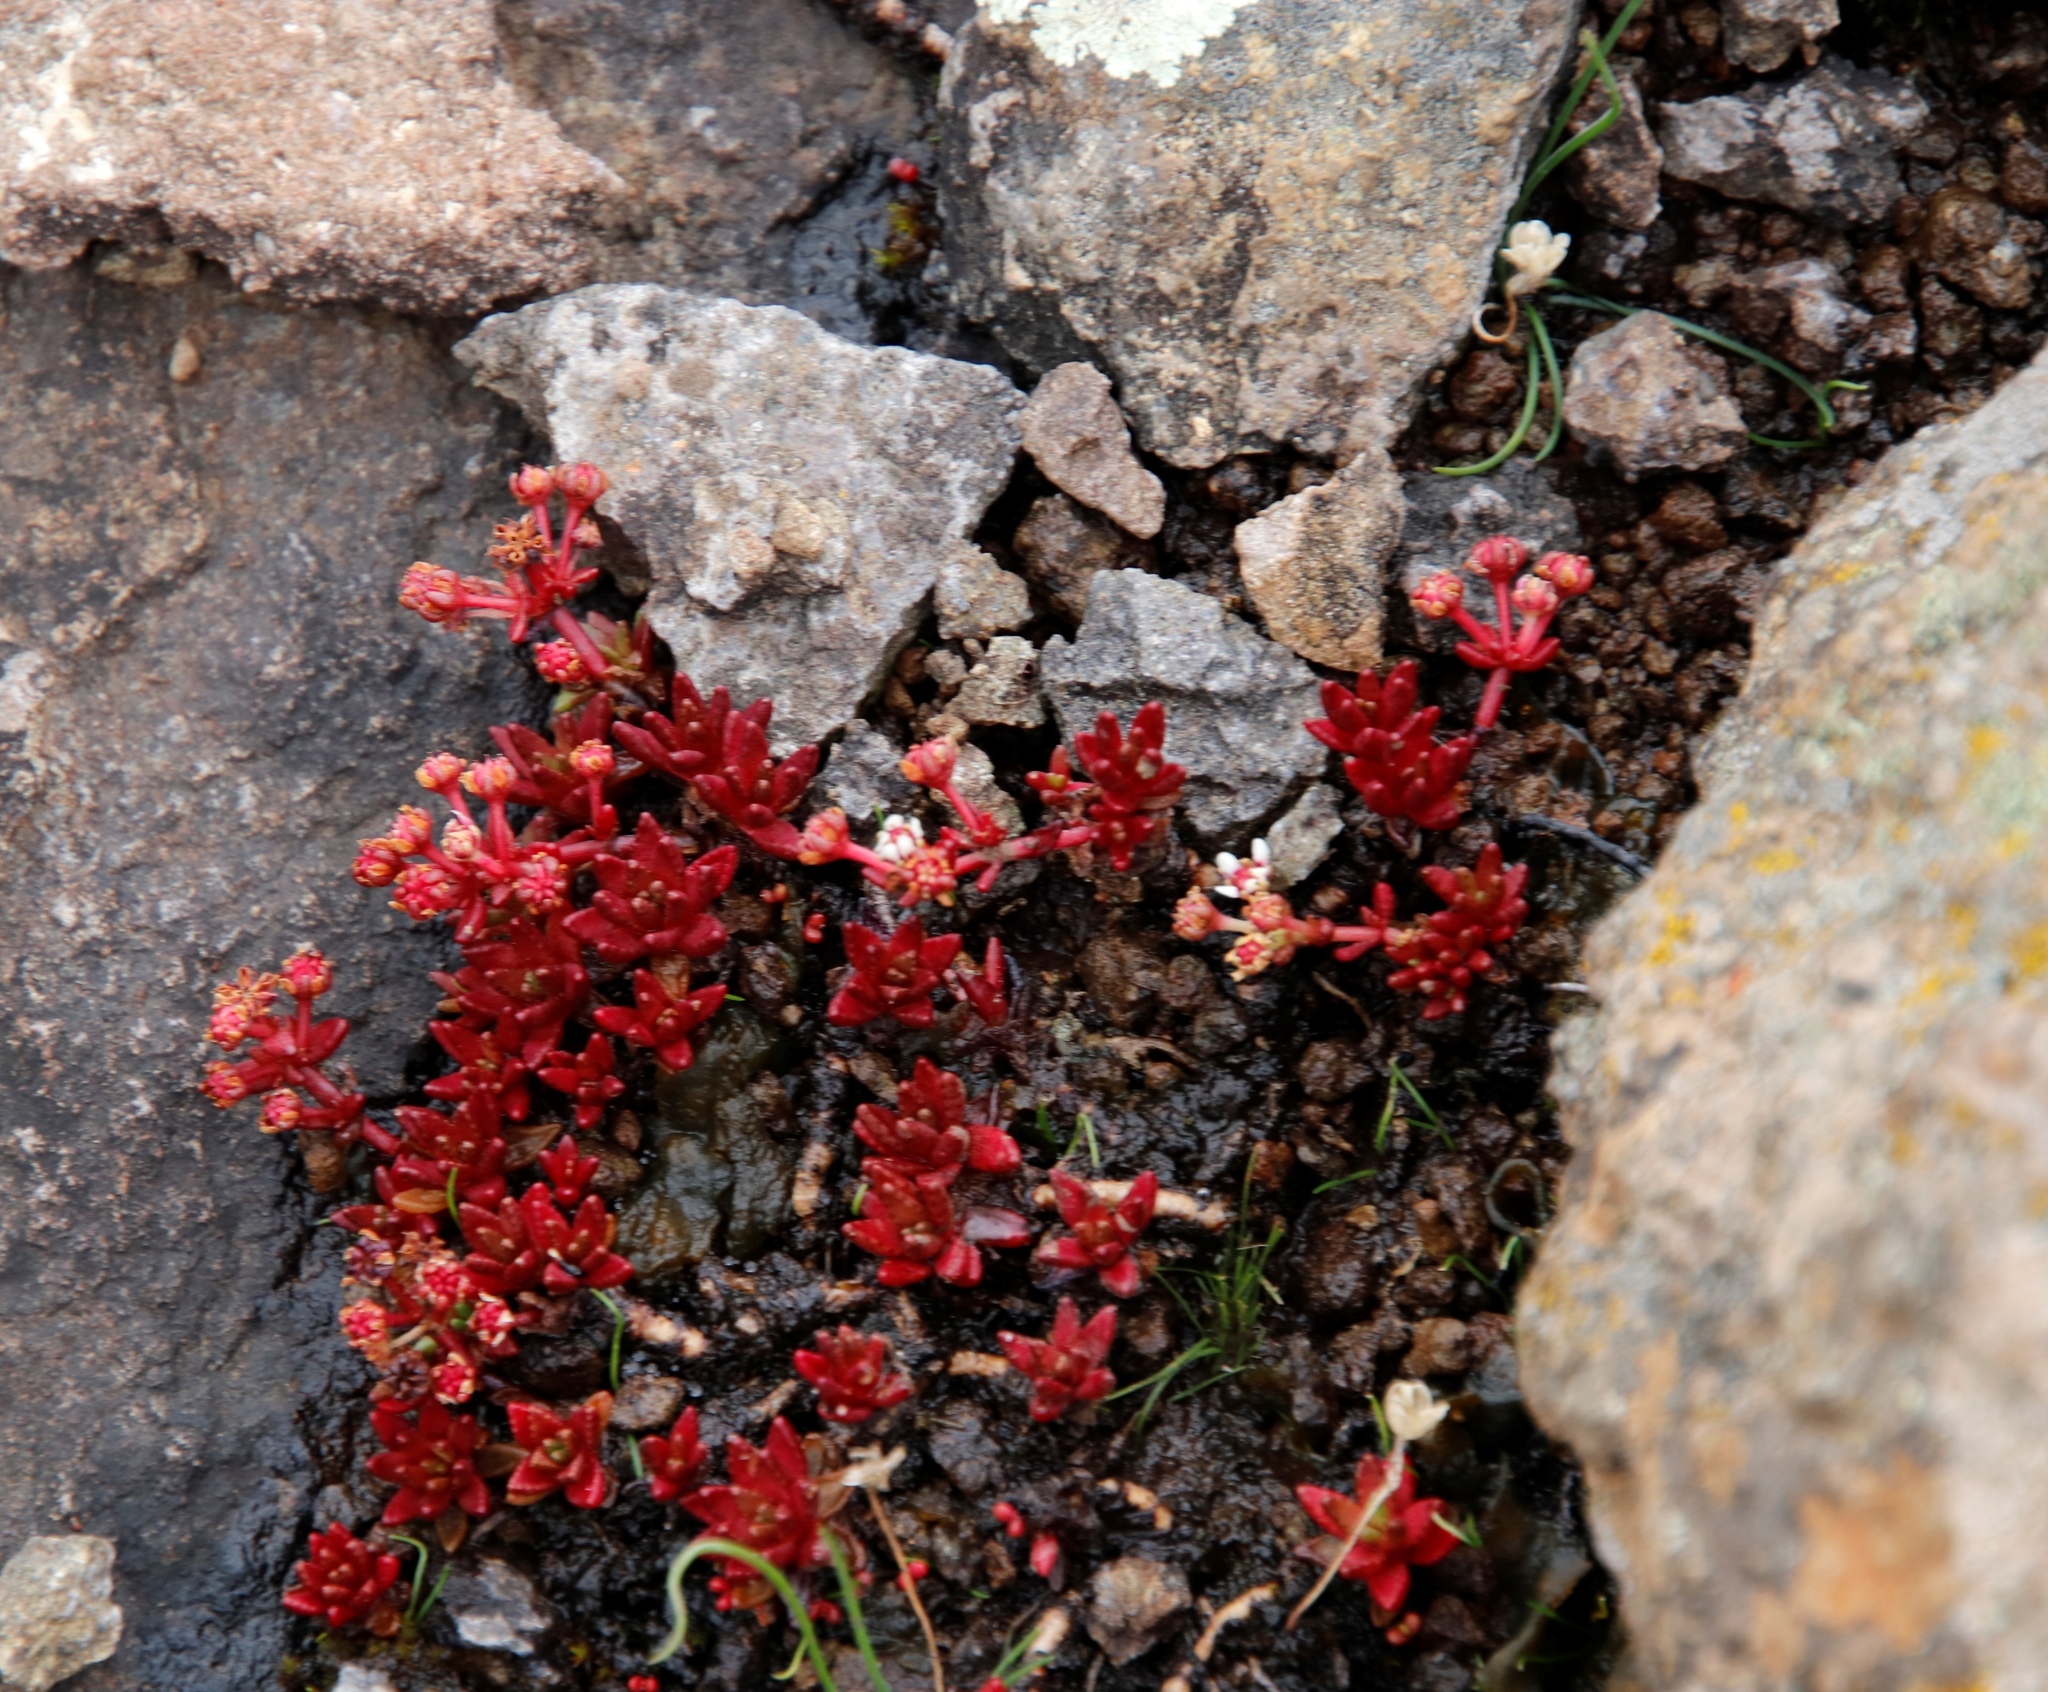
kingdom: Plantae
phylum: Tracheophyta
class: Magnoliopsida
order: Saxifragales
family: Crassulaceae
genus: Crassula
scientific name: Crassula peploides
